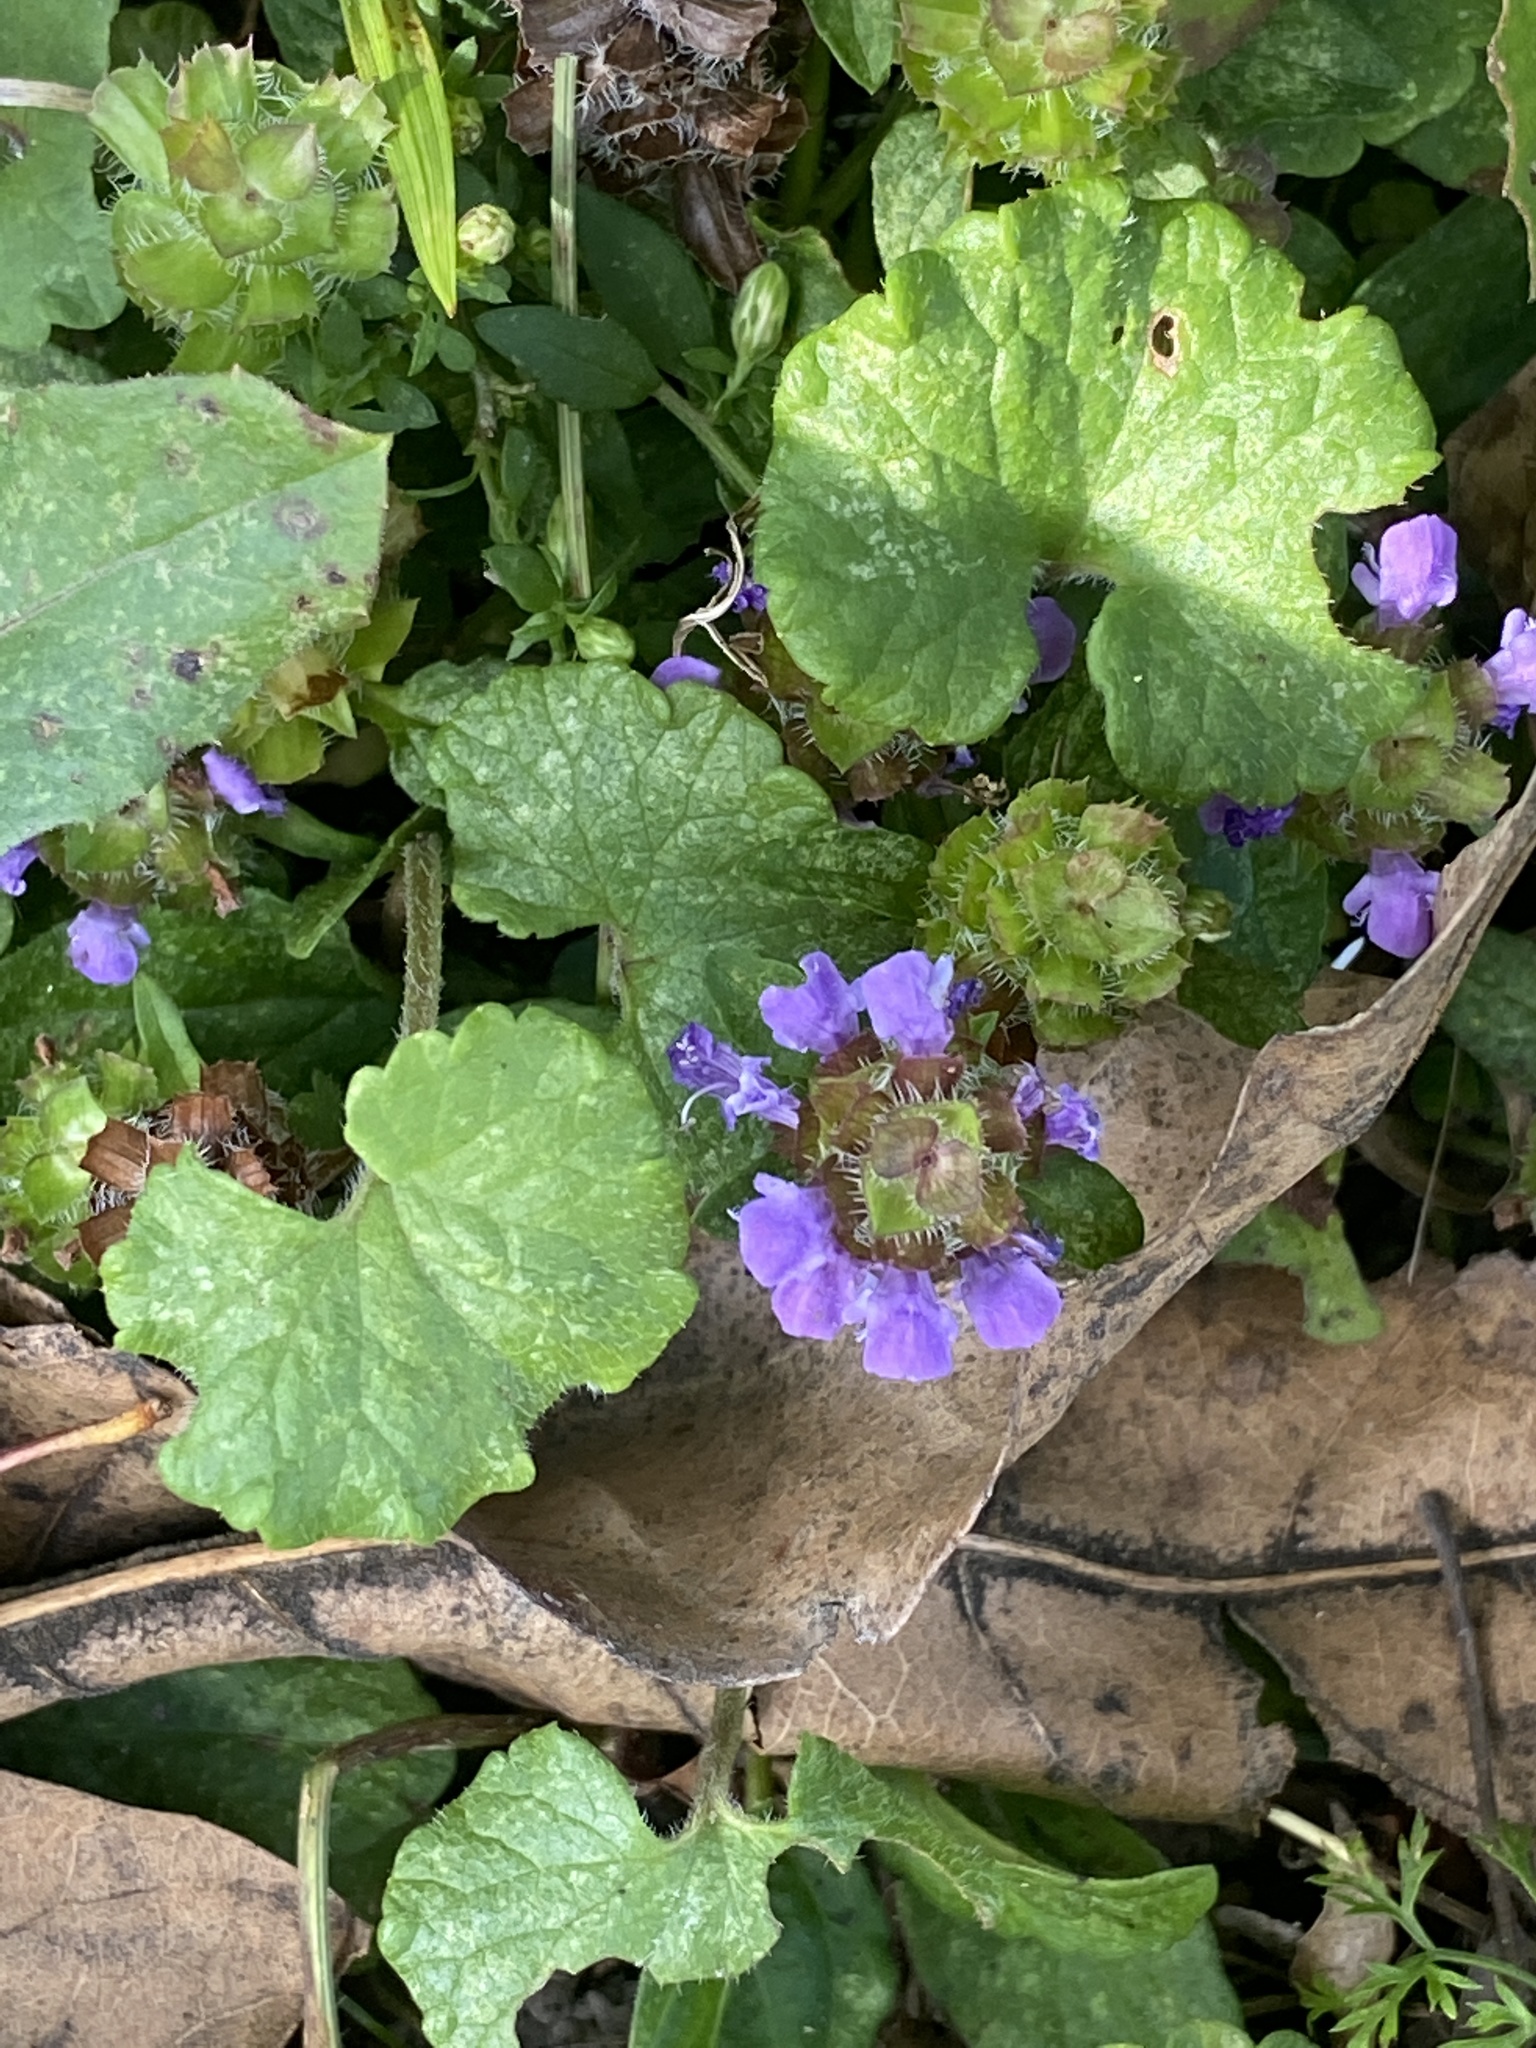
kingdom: Plantae
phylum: Tracheophyta
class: Magnoliopsida
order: Lamiales
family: Lamiaceae
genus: Prunella
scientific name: Prunella vulgaris
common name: Heal-all
